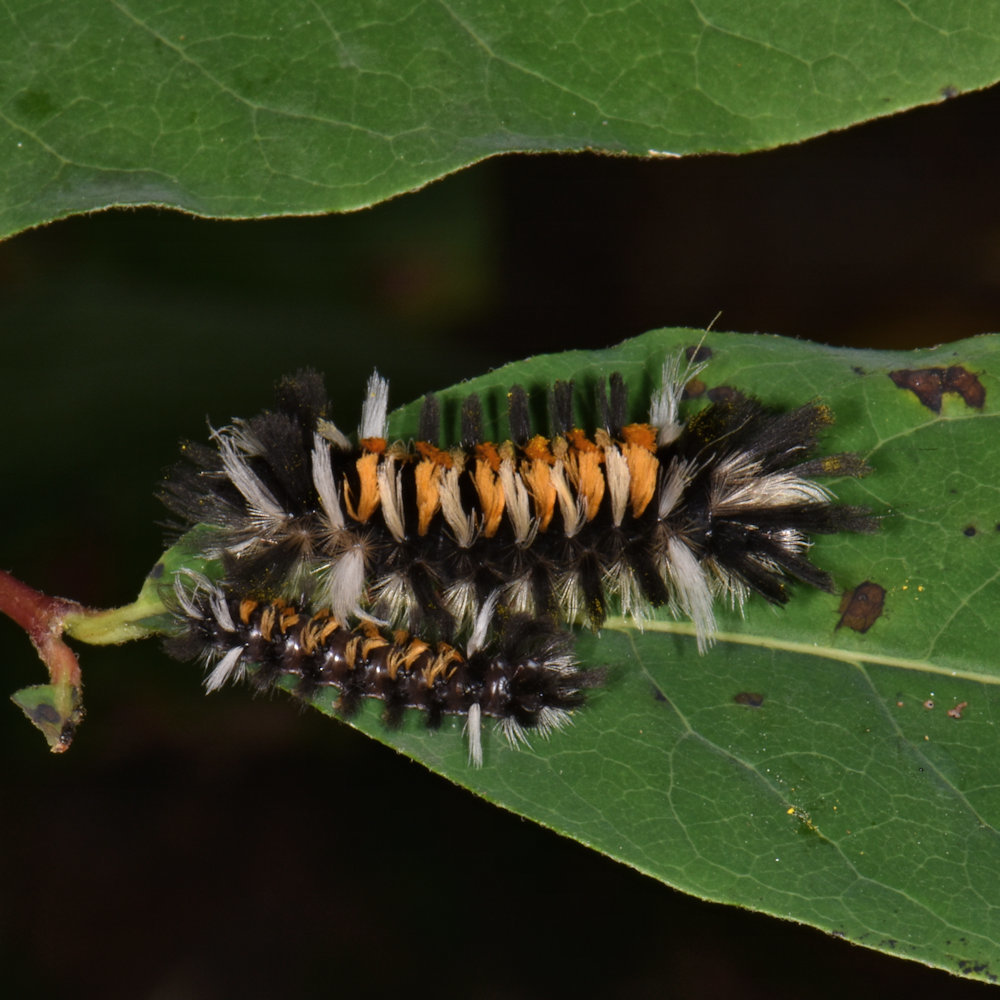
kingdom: Animalia
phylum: Arthropoda
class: Insecta
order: Lepidoptera
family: Erebidae
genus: Euchaetes
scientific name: Euchaetes egle
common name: Milkweed tussock moth
